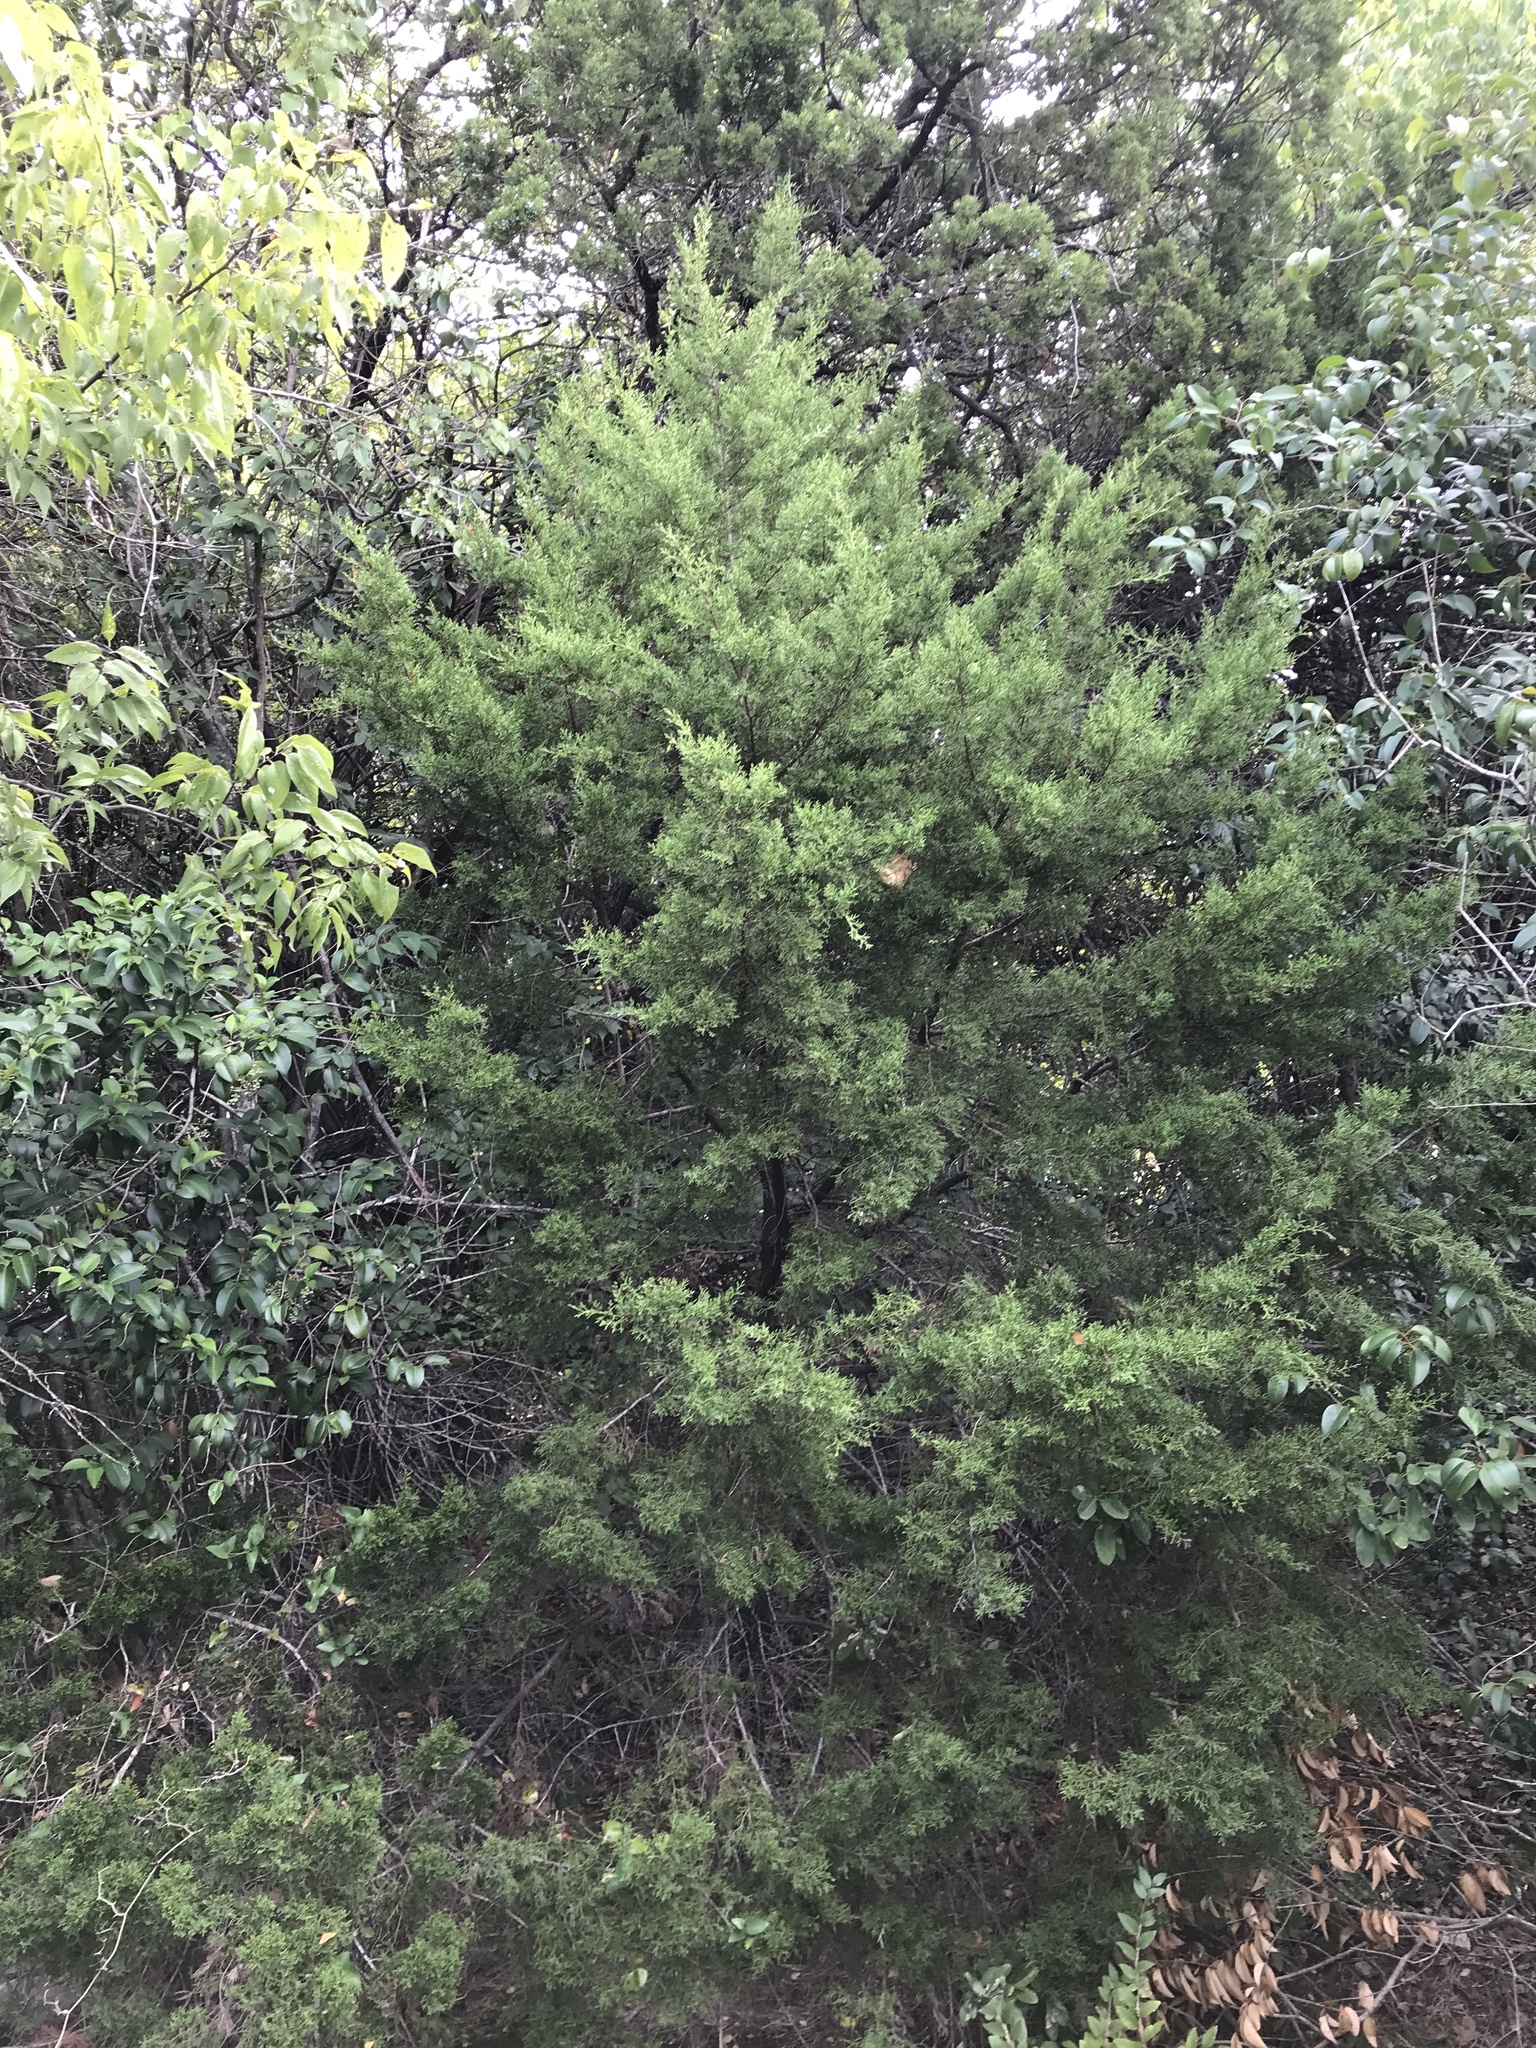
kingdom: Plantae
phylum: Tracheophyta
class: Pinopsida
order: Pinales
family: Cupressaceae
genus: Juniperus
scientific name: Juniperus ashei
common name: Mexican juniper
